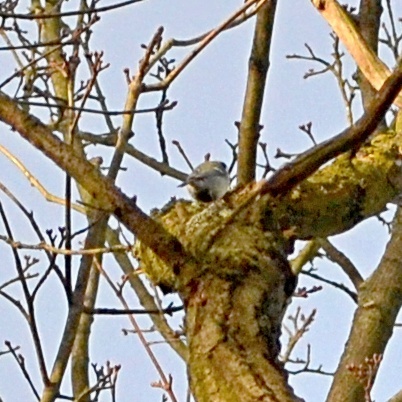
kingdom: Animalia
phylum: Chordata
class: Aves
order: Passeriformes
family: Paridae
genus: Parus
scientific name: Parus major
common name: Great tit
